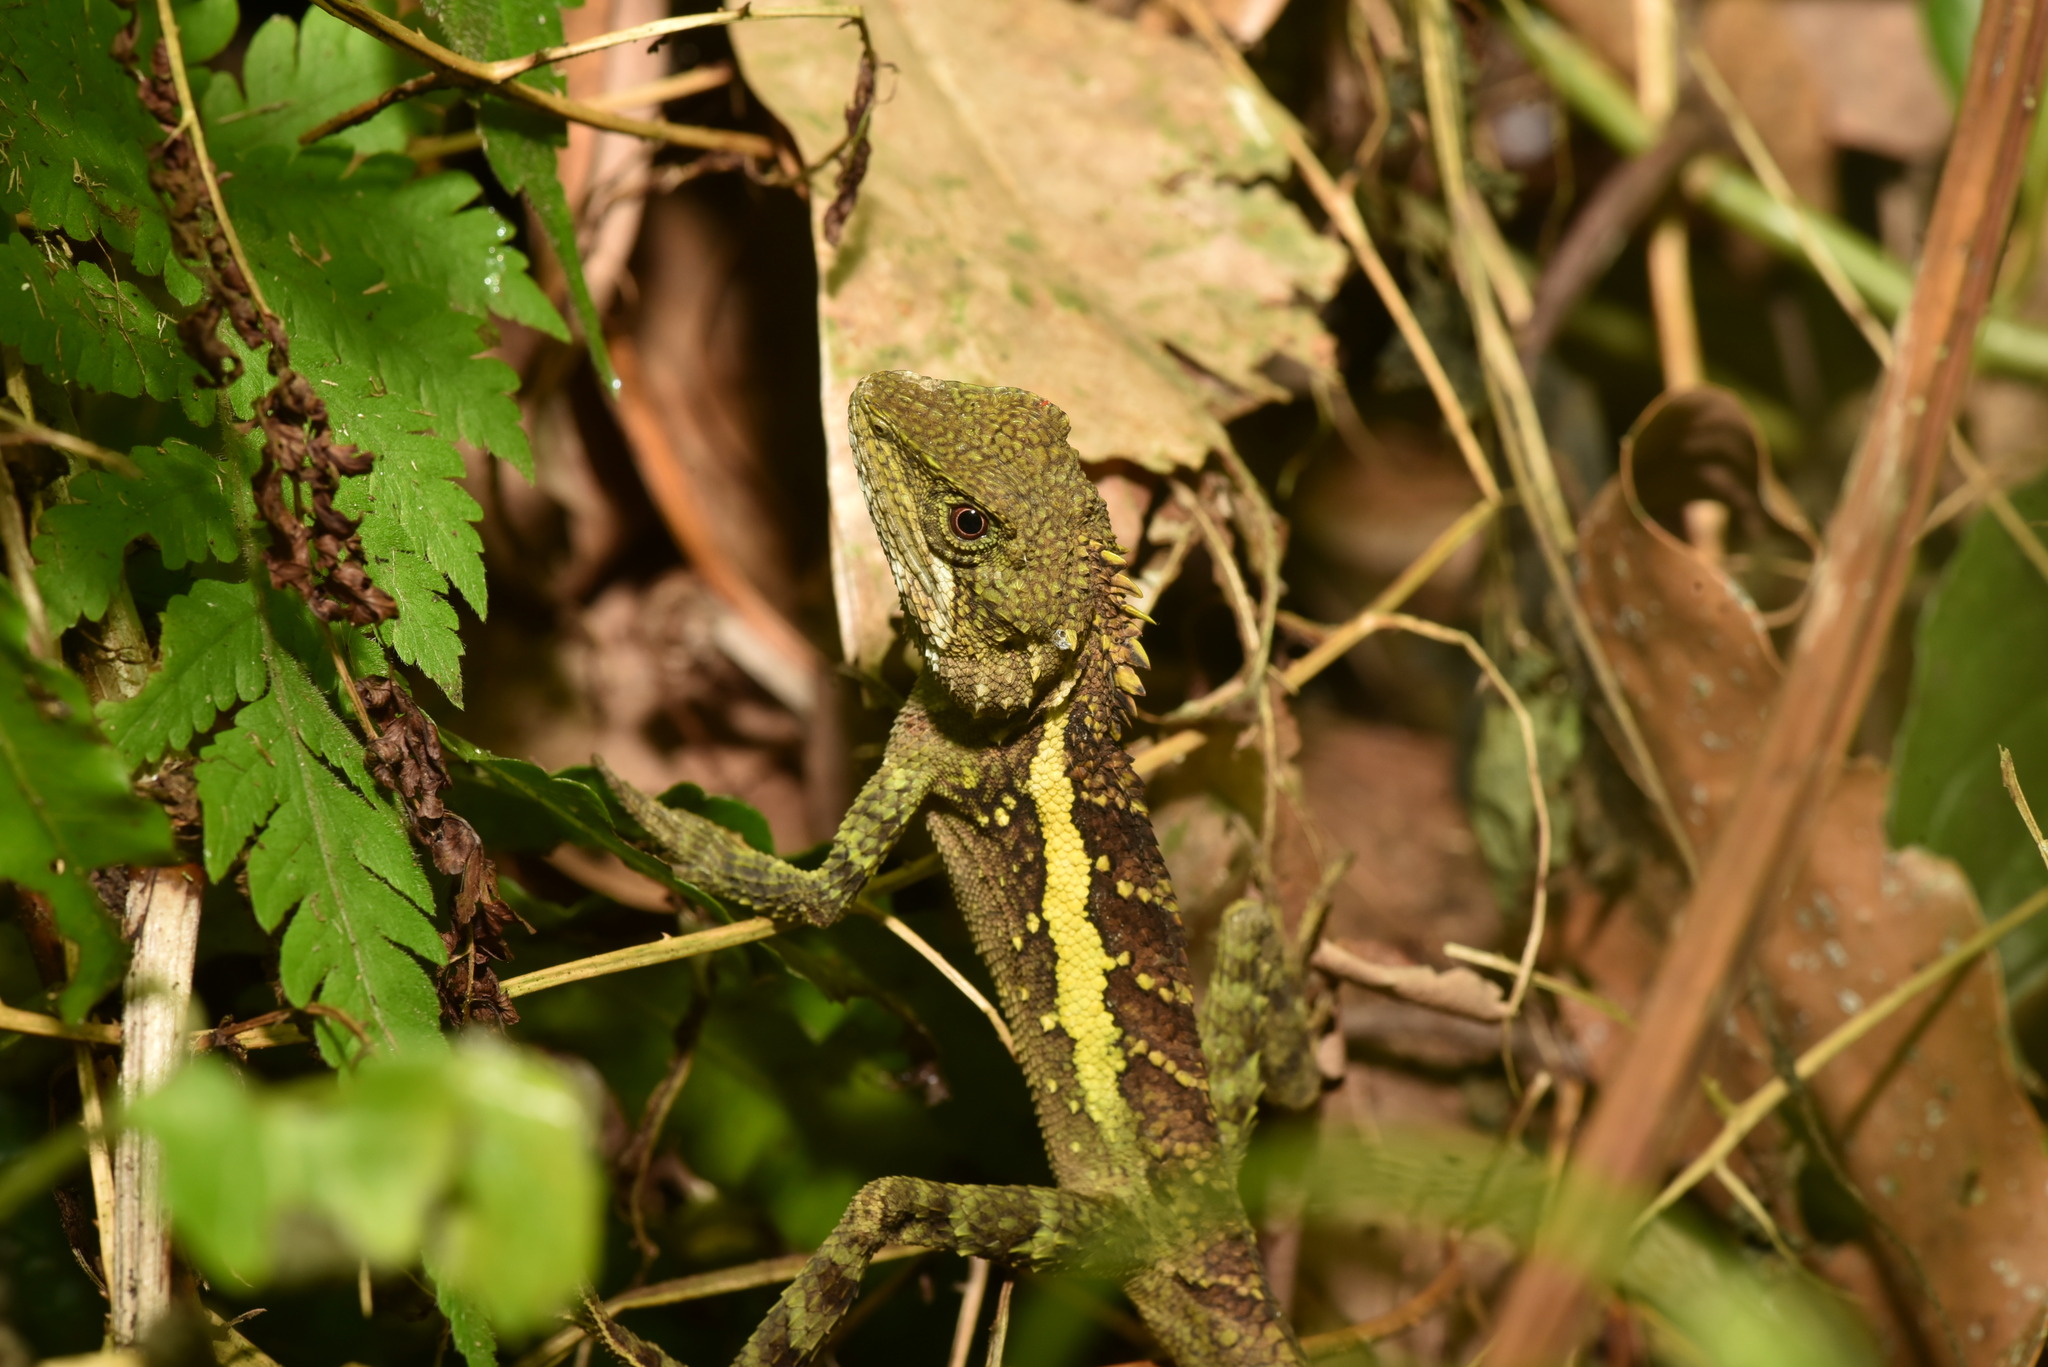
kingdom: Animalia
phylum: Chordata
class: Squamata
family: Agamidae
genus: Diploderma
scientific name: Diploderma swinhonis
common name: Taiwan japalure
